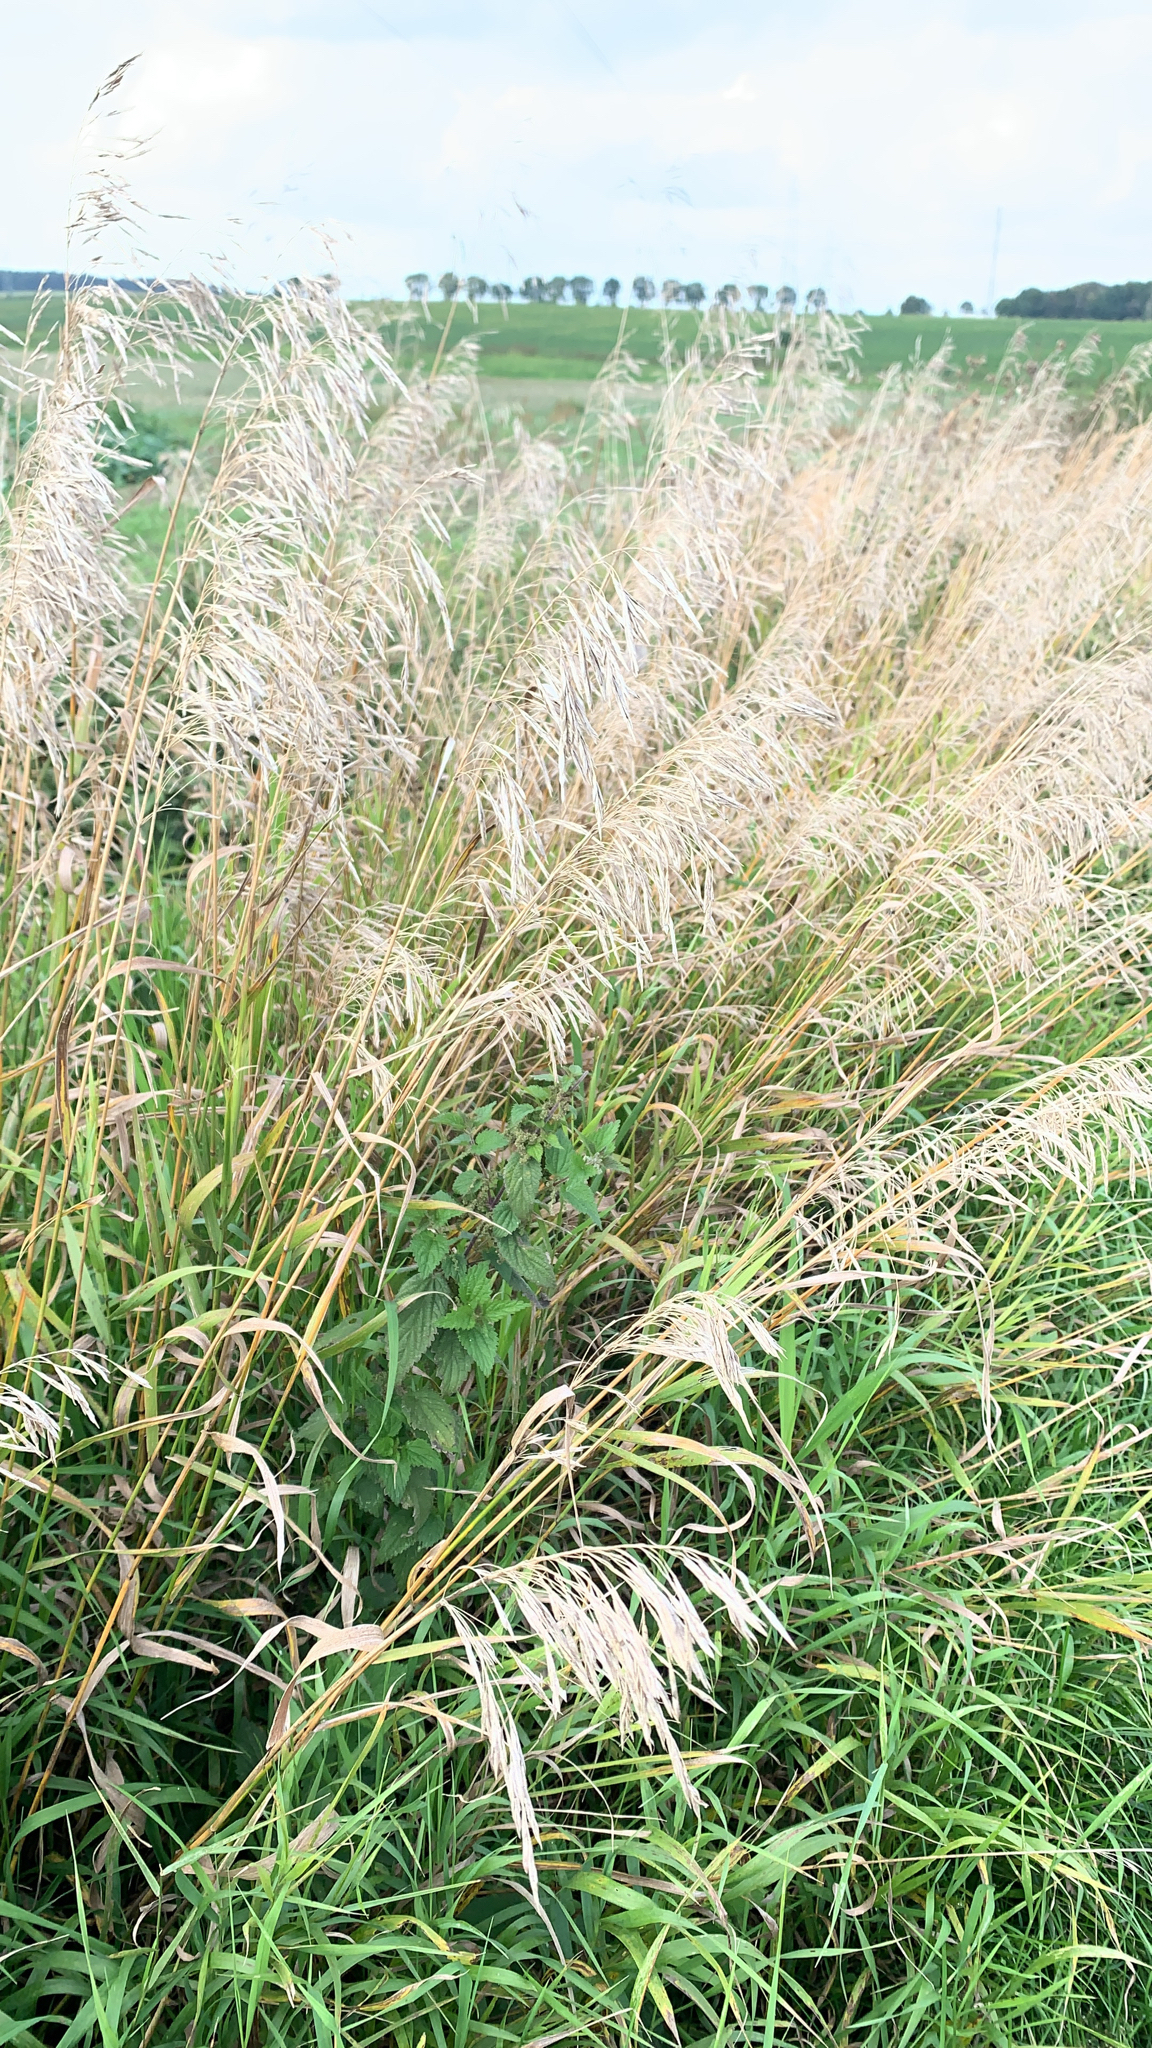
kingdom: Plantae
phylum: Tracheophyta
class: Liliopsida
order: Poales
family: Poaceae
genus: Bromus
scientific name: Bromus inermis
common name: Smooth brome
